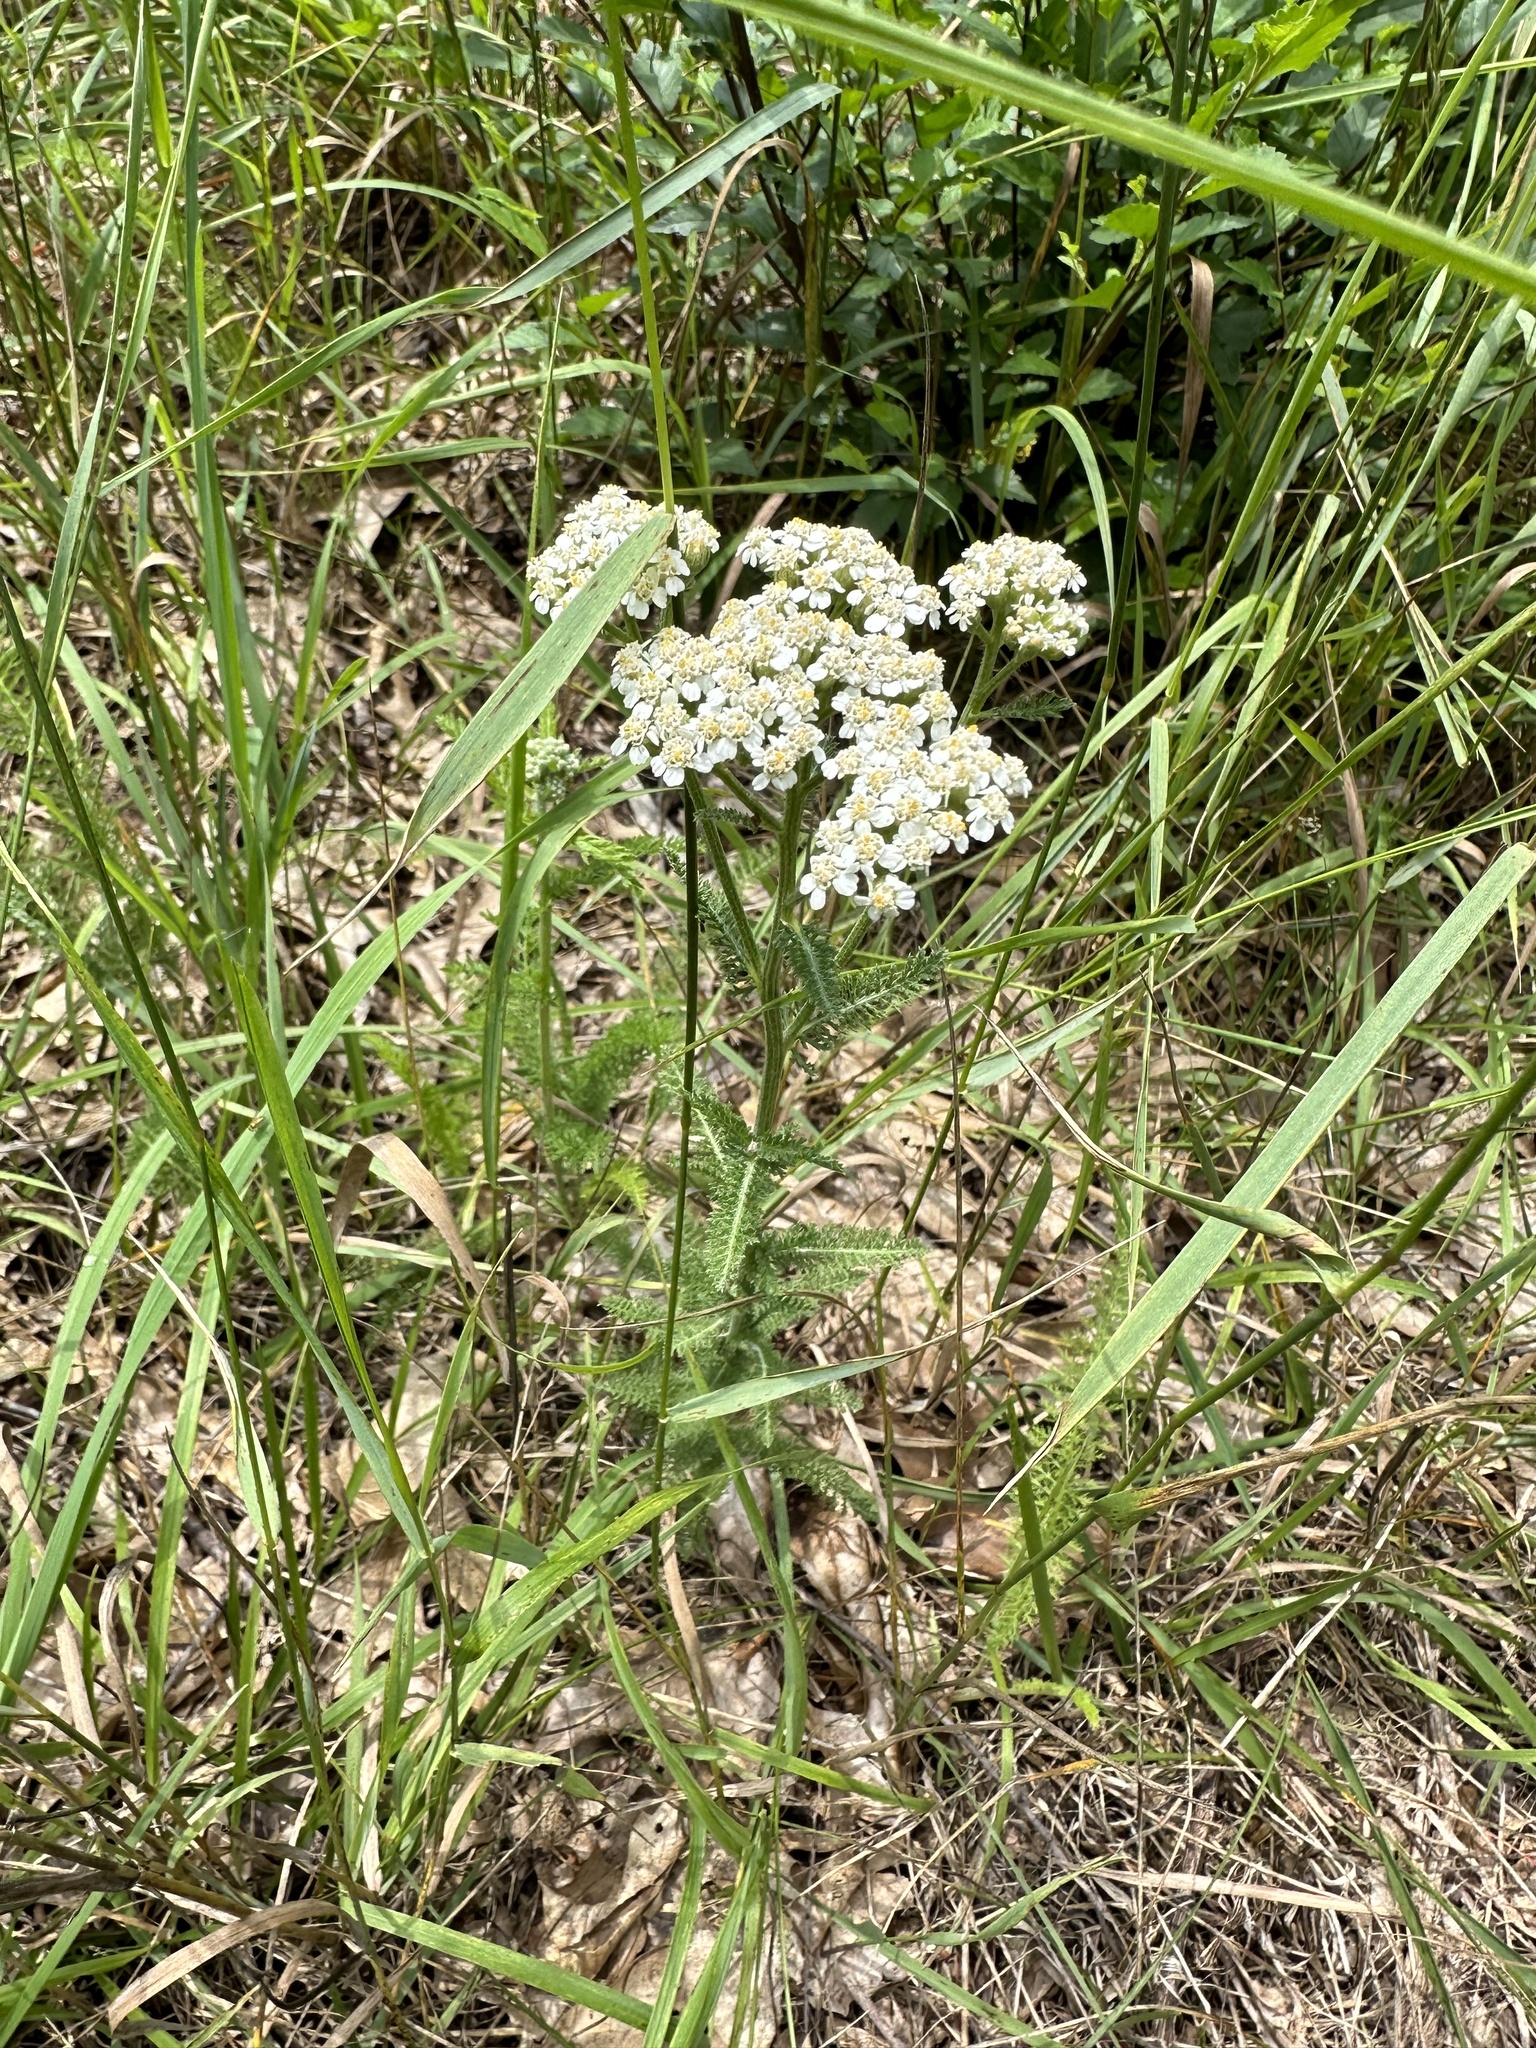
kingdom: Plantae
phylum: Tracheophyta
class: Magnoliopsida
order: Asterales
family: Asteraceae
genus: Achillea
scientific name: Achillea millefolium
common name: Yarrow
